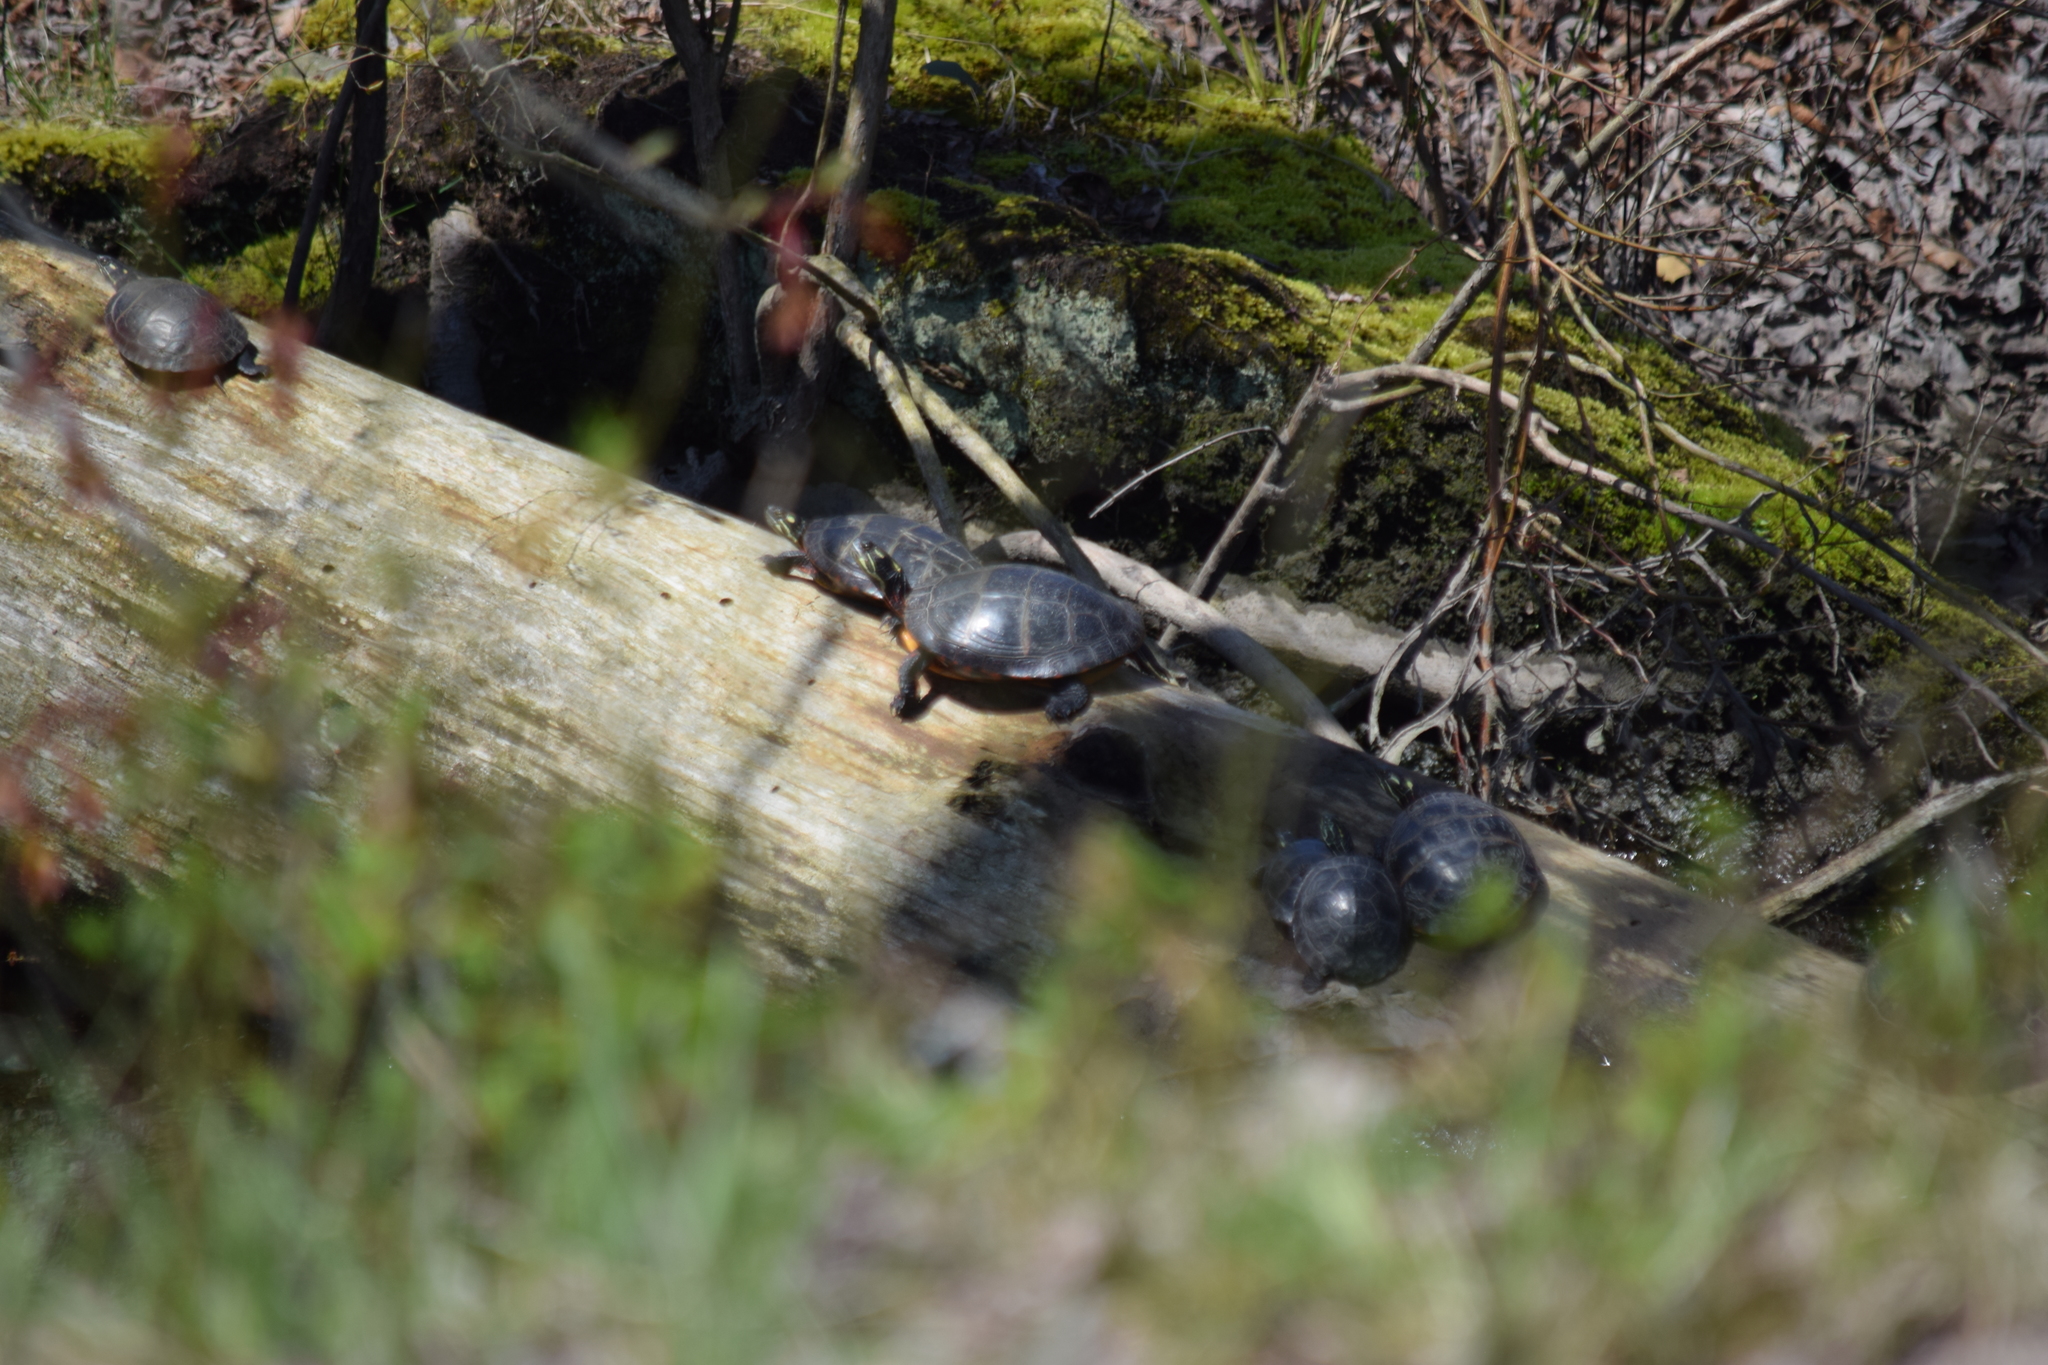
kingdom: Animalia
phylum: Chordata
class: Testudines
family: Emydidae
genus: Chrysemys
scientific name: Chrysemys picta
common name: Painted turtle
